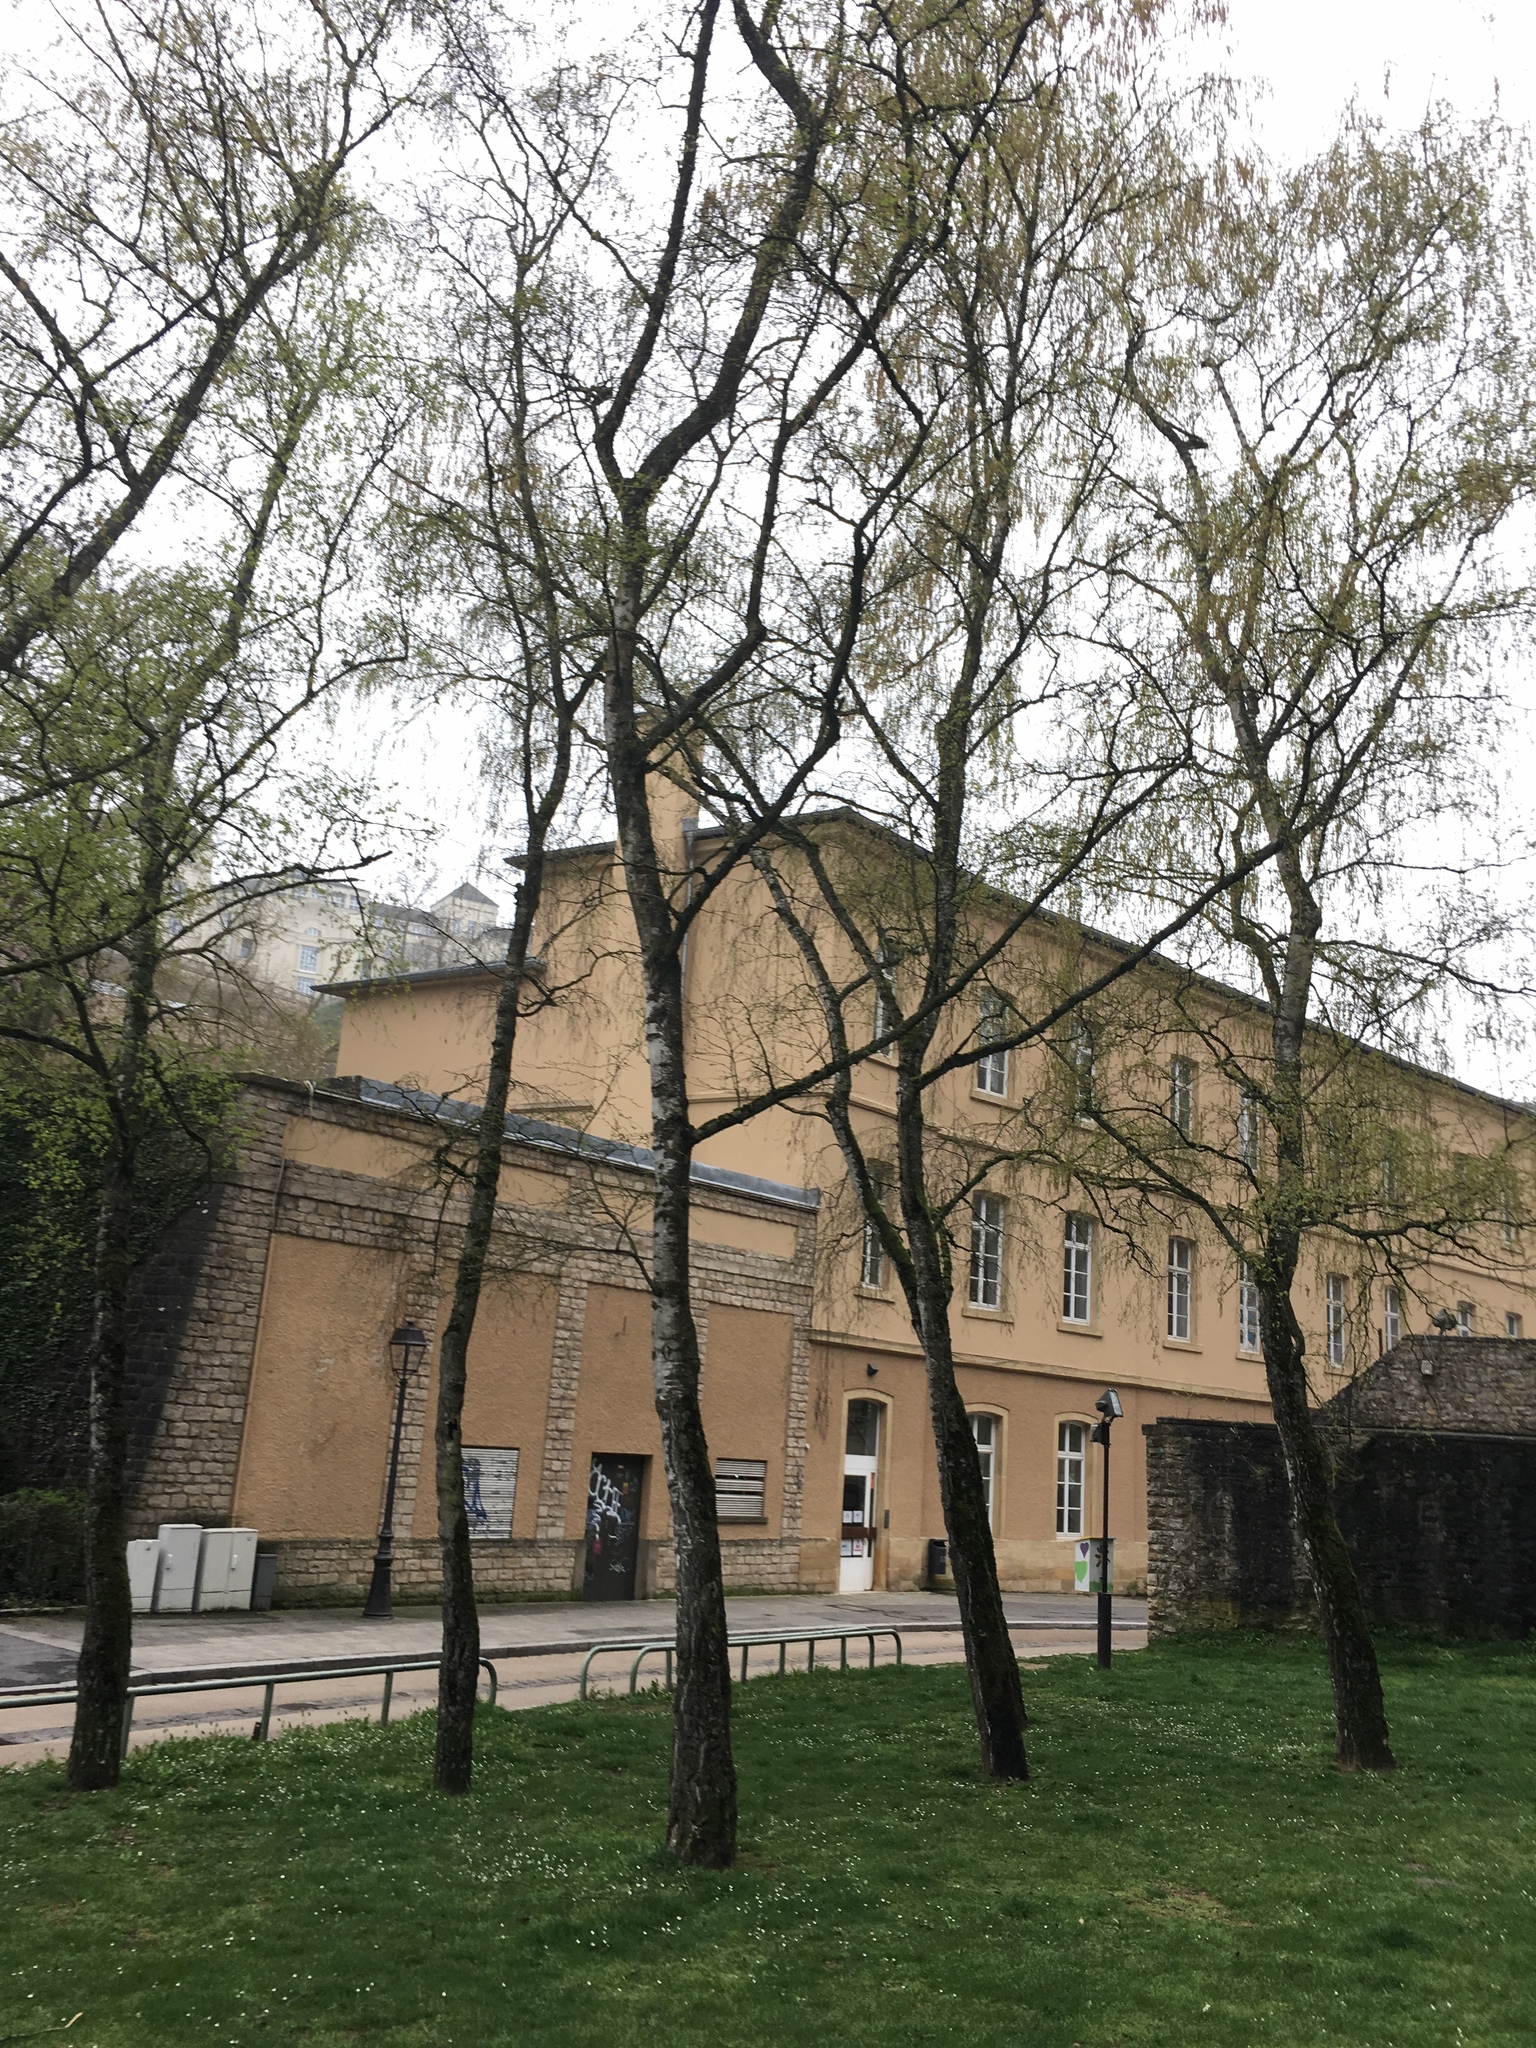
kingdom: Plantae
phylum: Tracheophyta
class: Magnoliopsida
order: Fagales
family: Betulaceae
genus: Betula
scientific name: Betula pendula
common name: Silver birch
